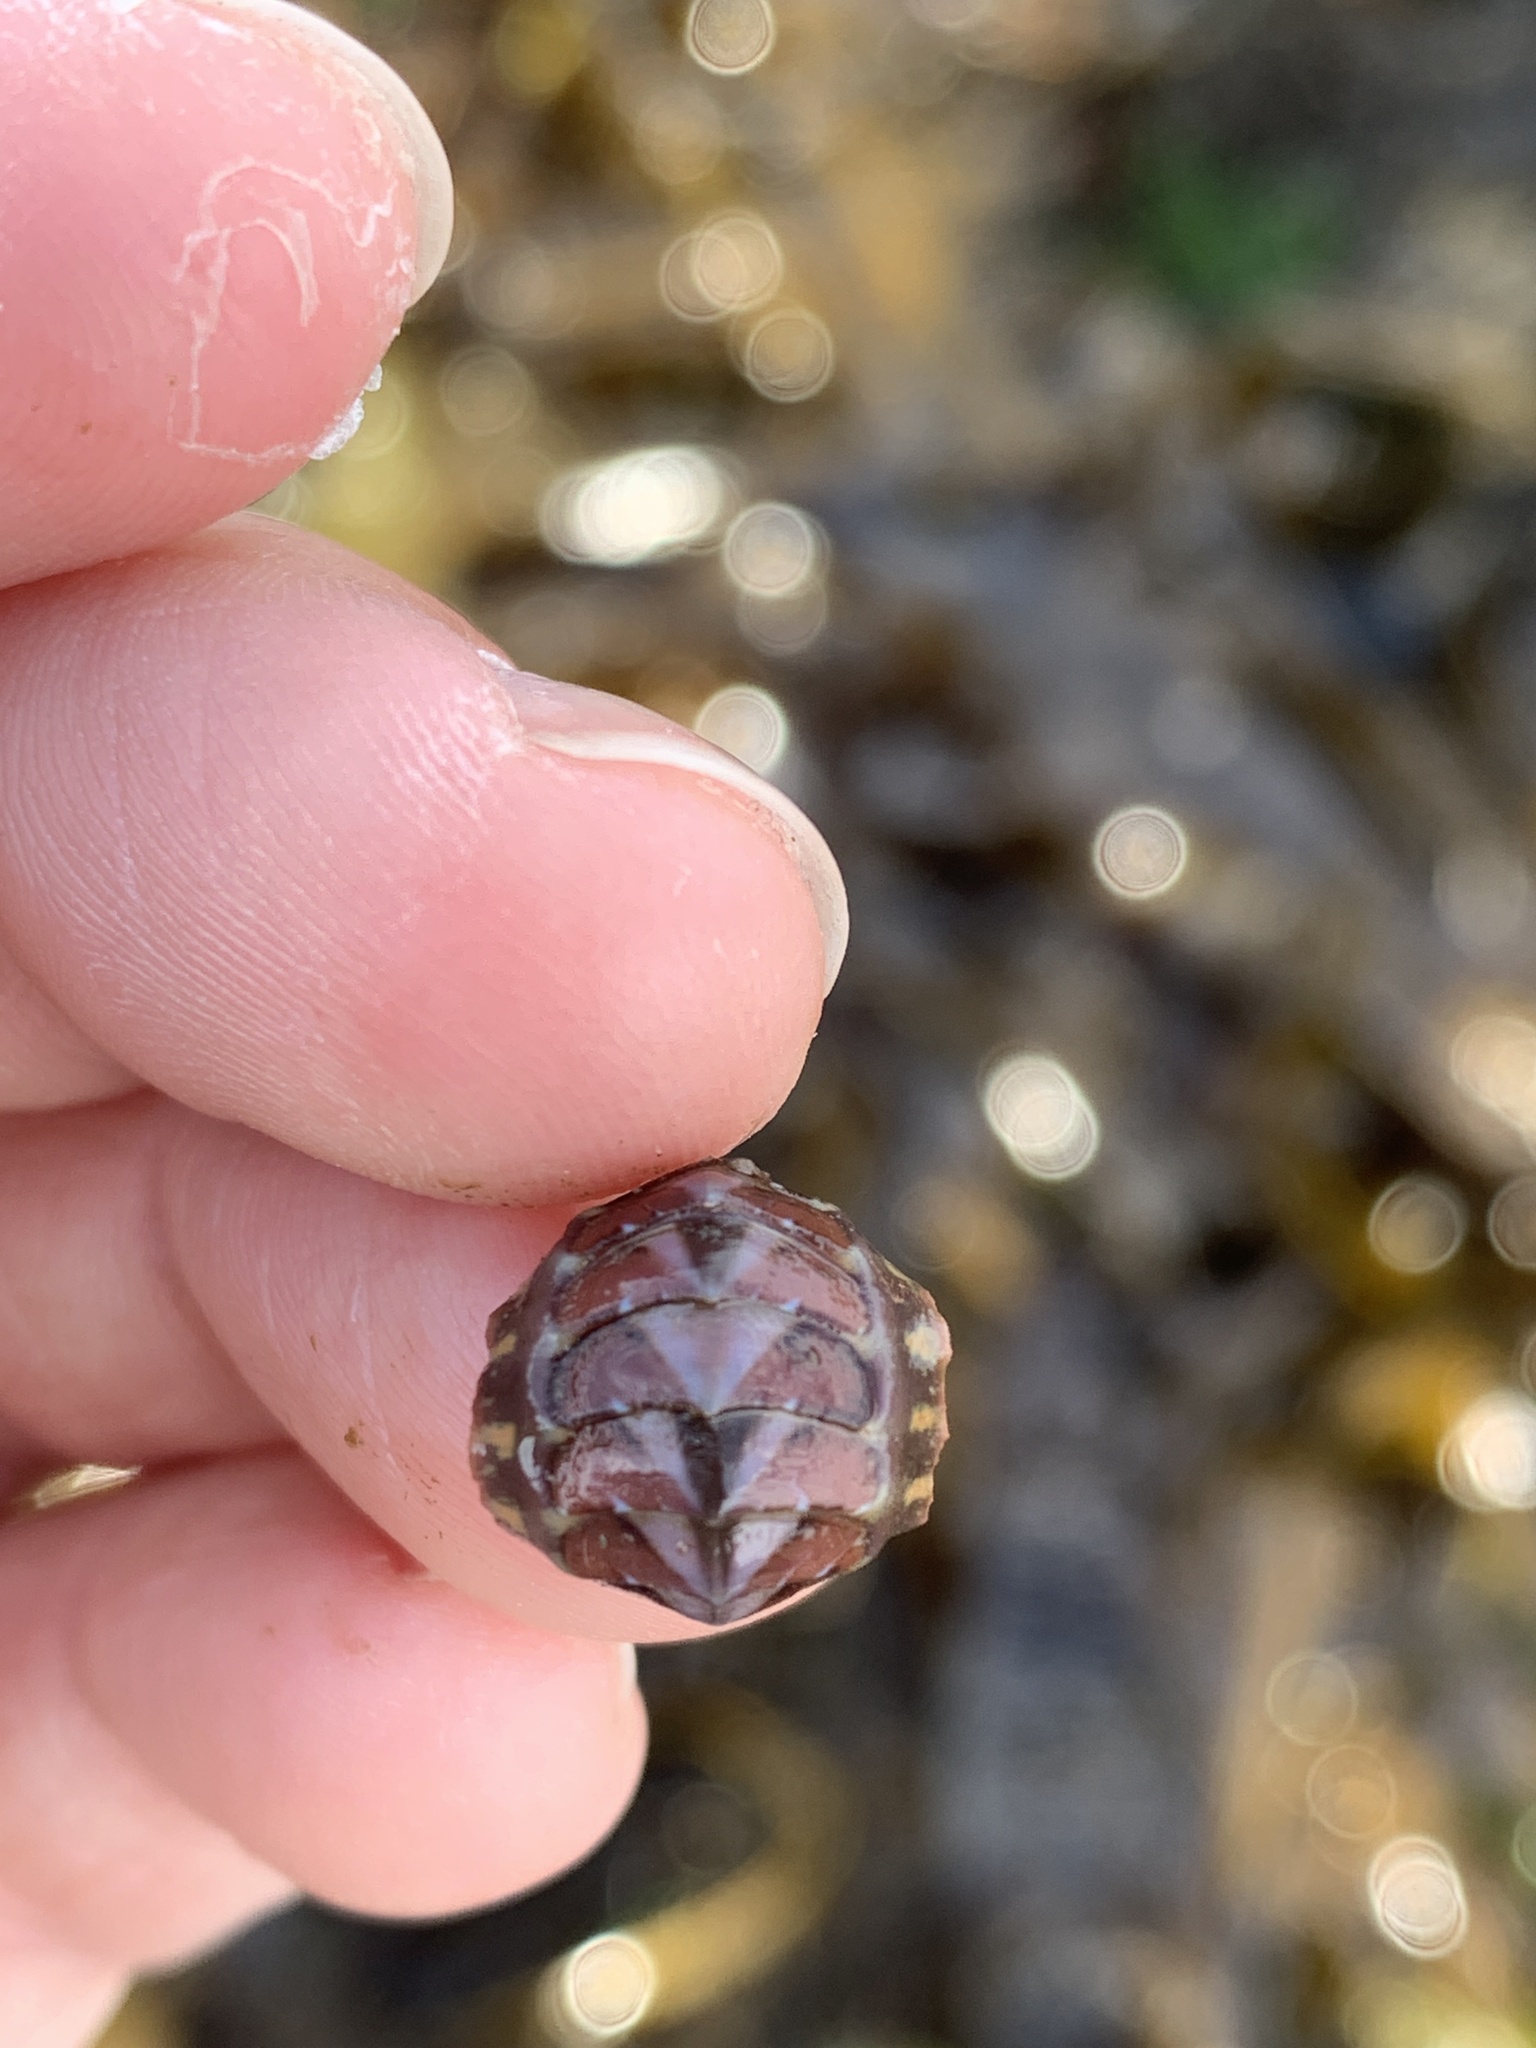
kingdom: Animalia
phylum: Mollusca
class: Polyplacophora
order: Chitonida
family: Tonicellidae
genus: Tonicella
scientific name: Tonicella lineata
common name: Lined chiton
